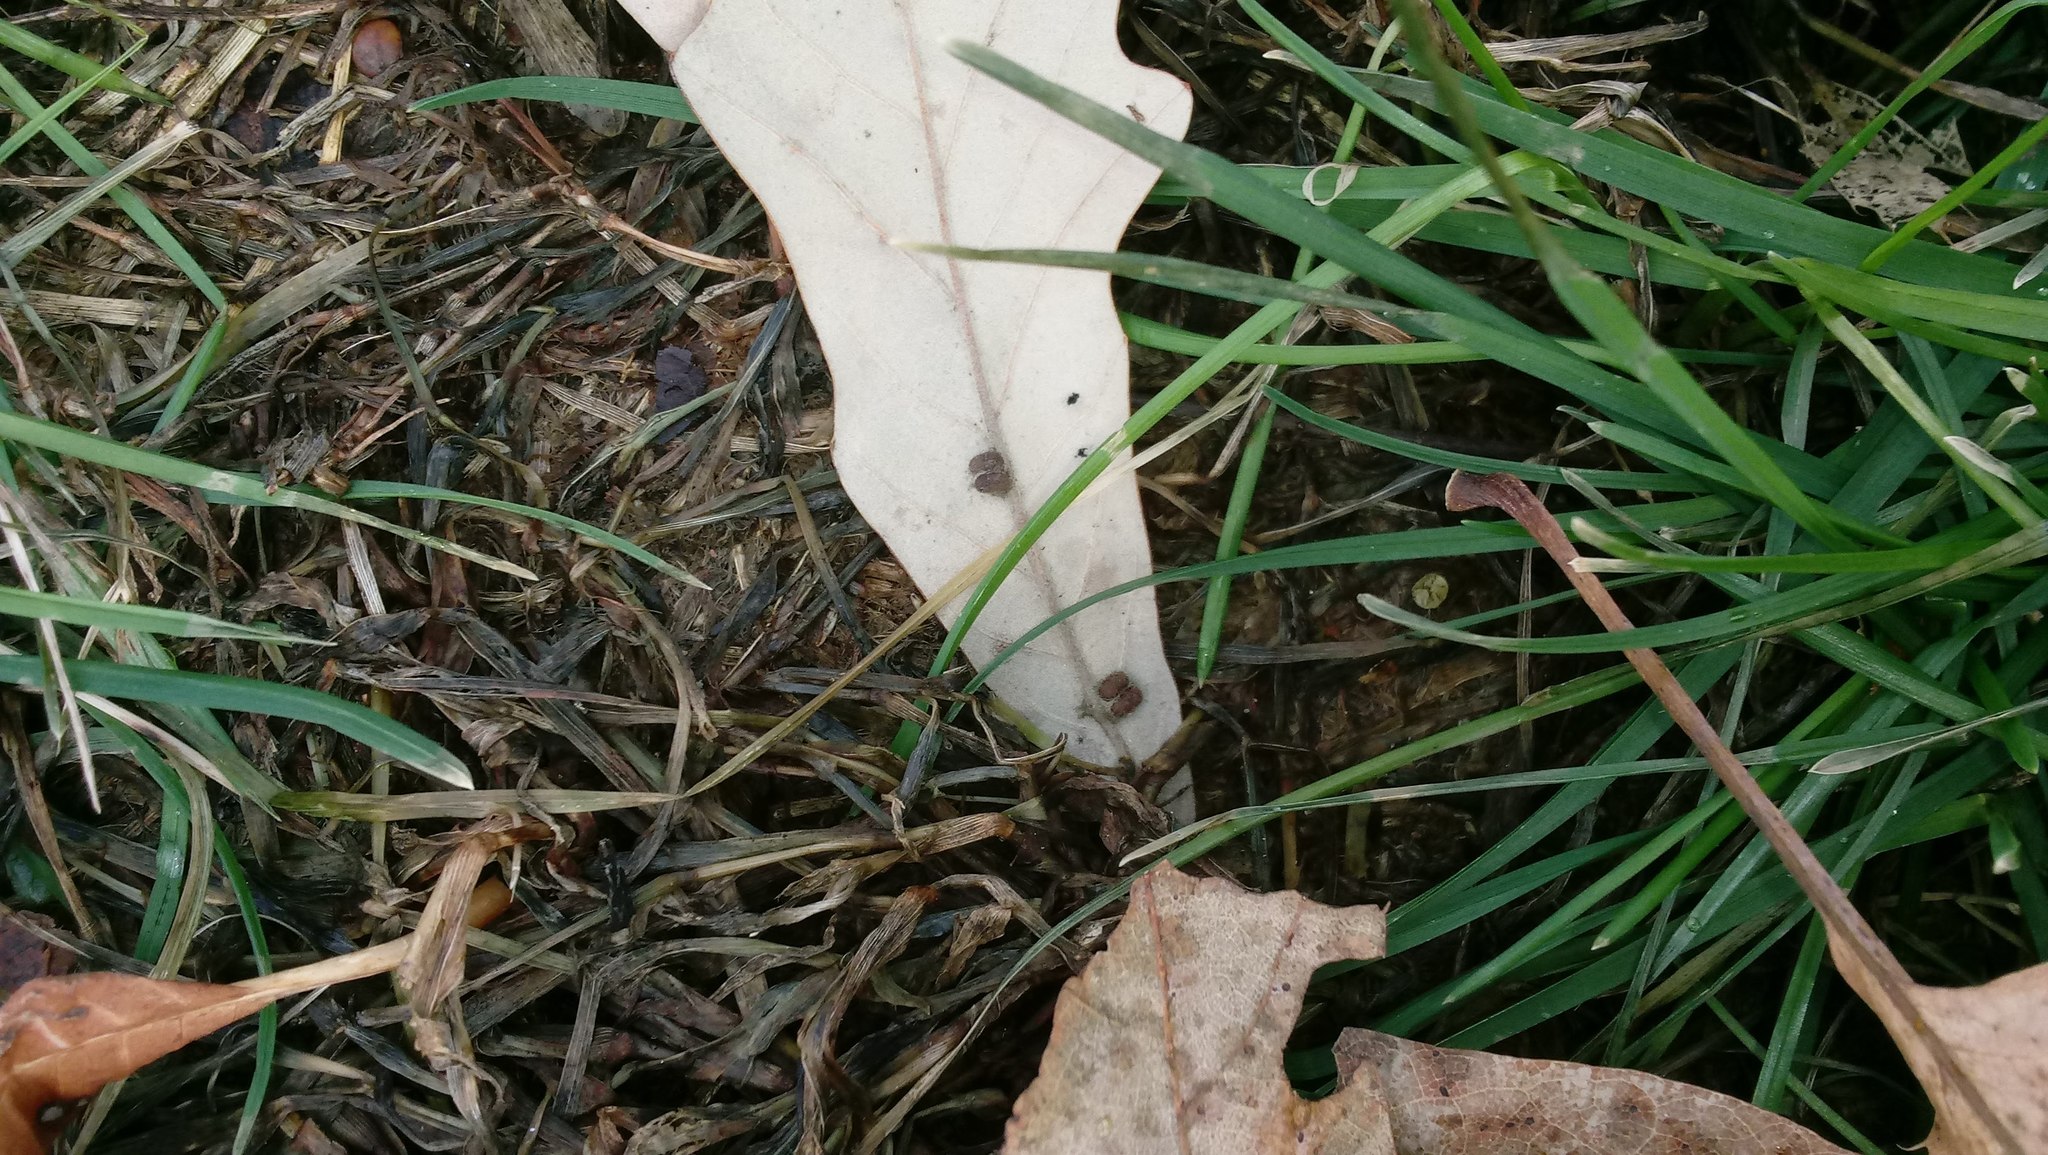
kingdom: Animalia
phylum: Arthropoda
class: Insecta
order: Hymenoptera
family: Cynipidae
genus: Andricus
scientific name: Andricus Druon ignotum
